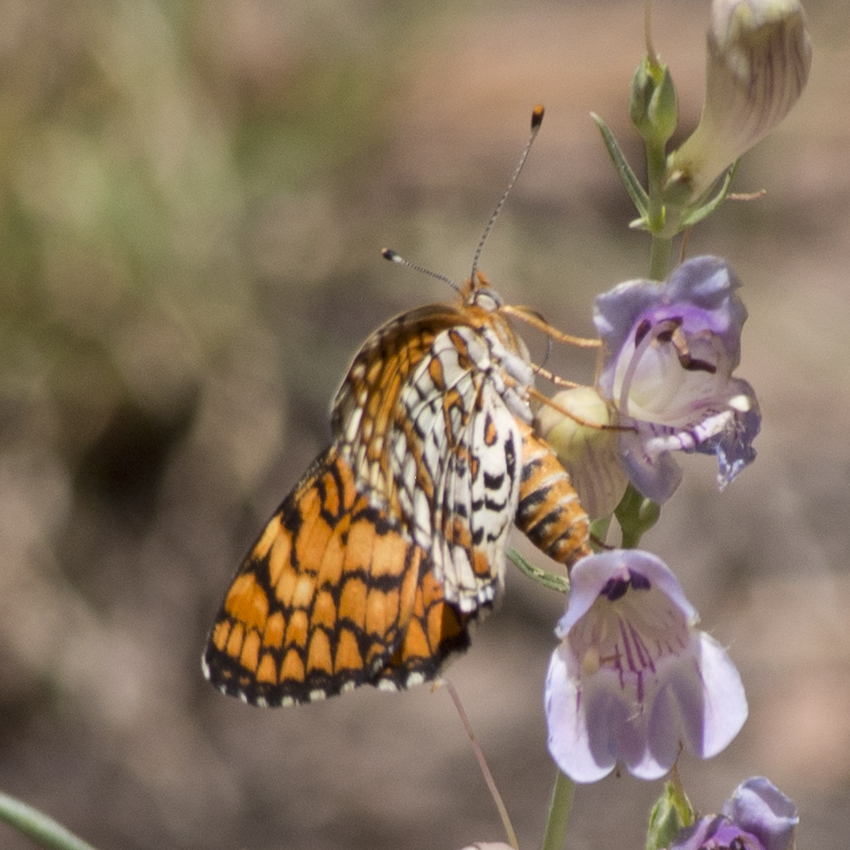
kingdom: Animalia
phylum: Arthropoda
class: Insecta
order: Lepidoptera
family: Nymphalidae
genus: Poladryas
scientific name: Poladryas minuta
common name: Dotted checkerspot
